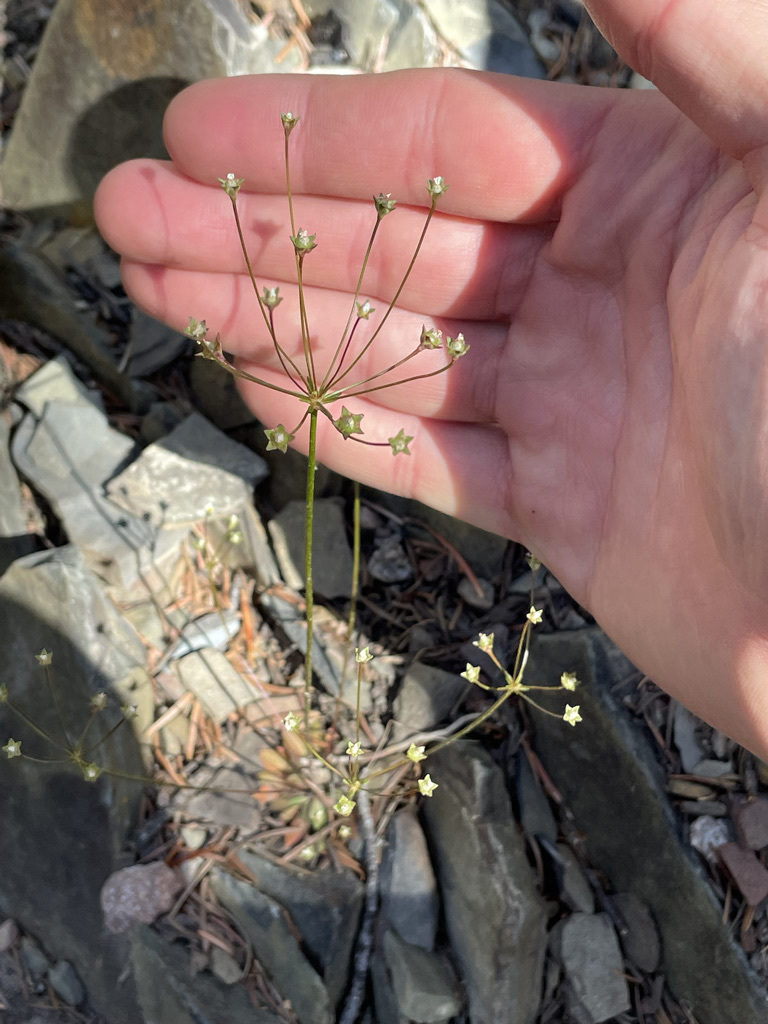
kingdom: Plantae
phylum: Tracheophyta
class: Magnoliopsida
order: Ericales
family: Primulaceae
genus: Androsace
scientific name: Androsace septentrionalis
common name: Hairy northern fairy-candelabra
